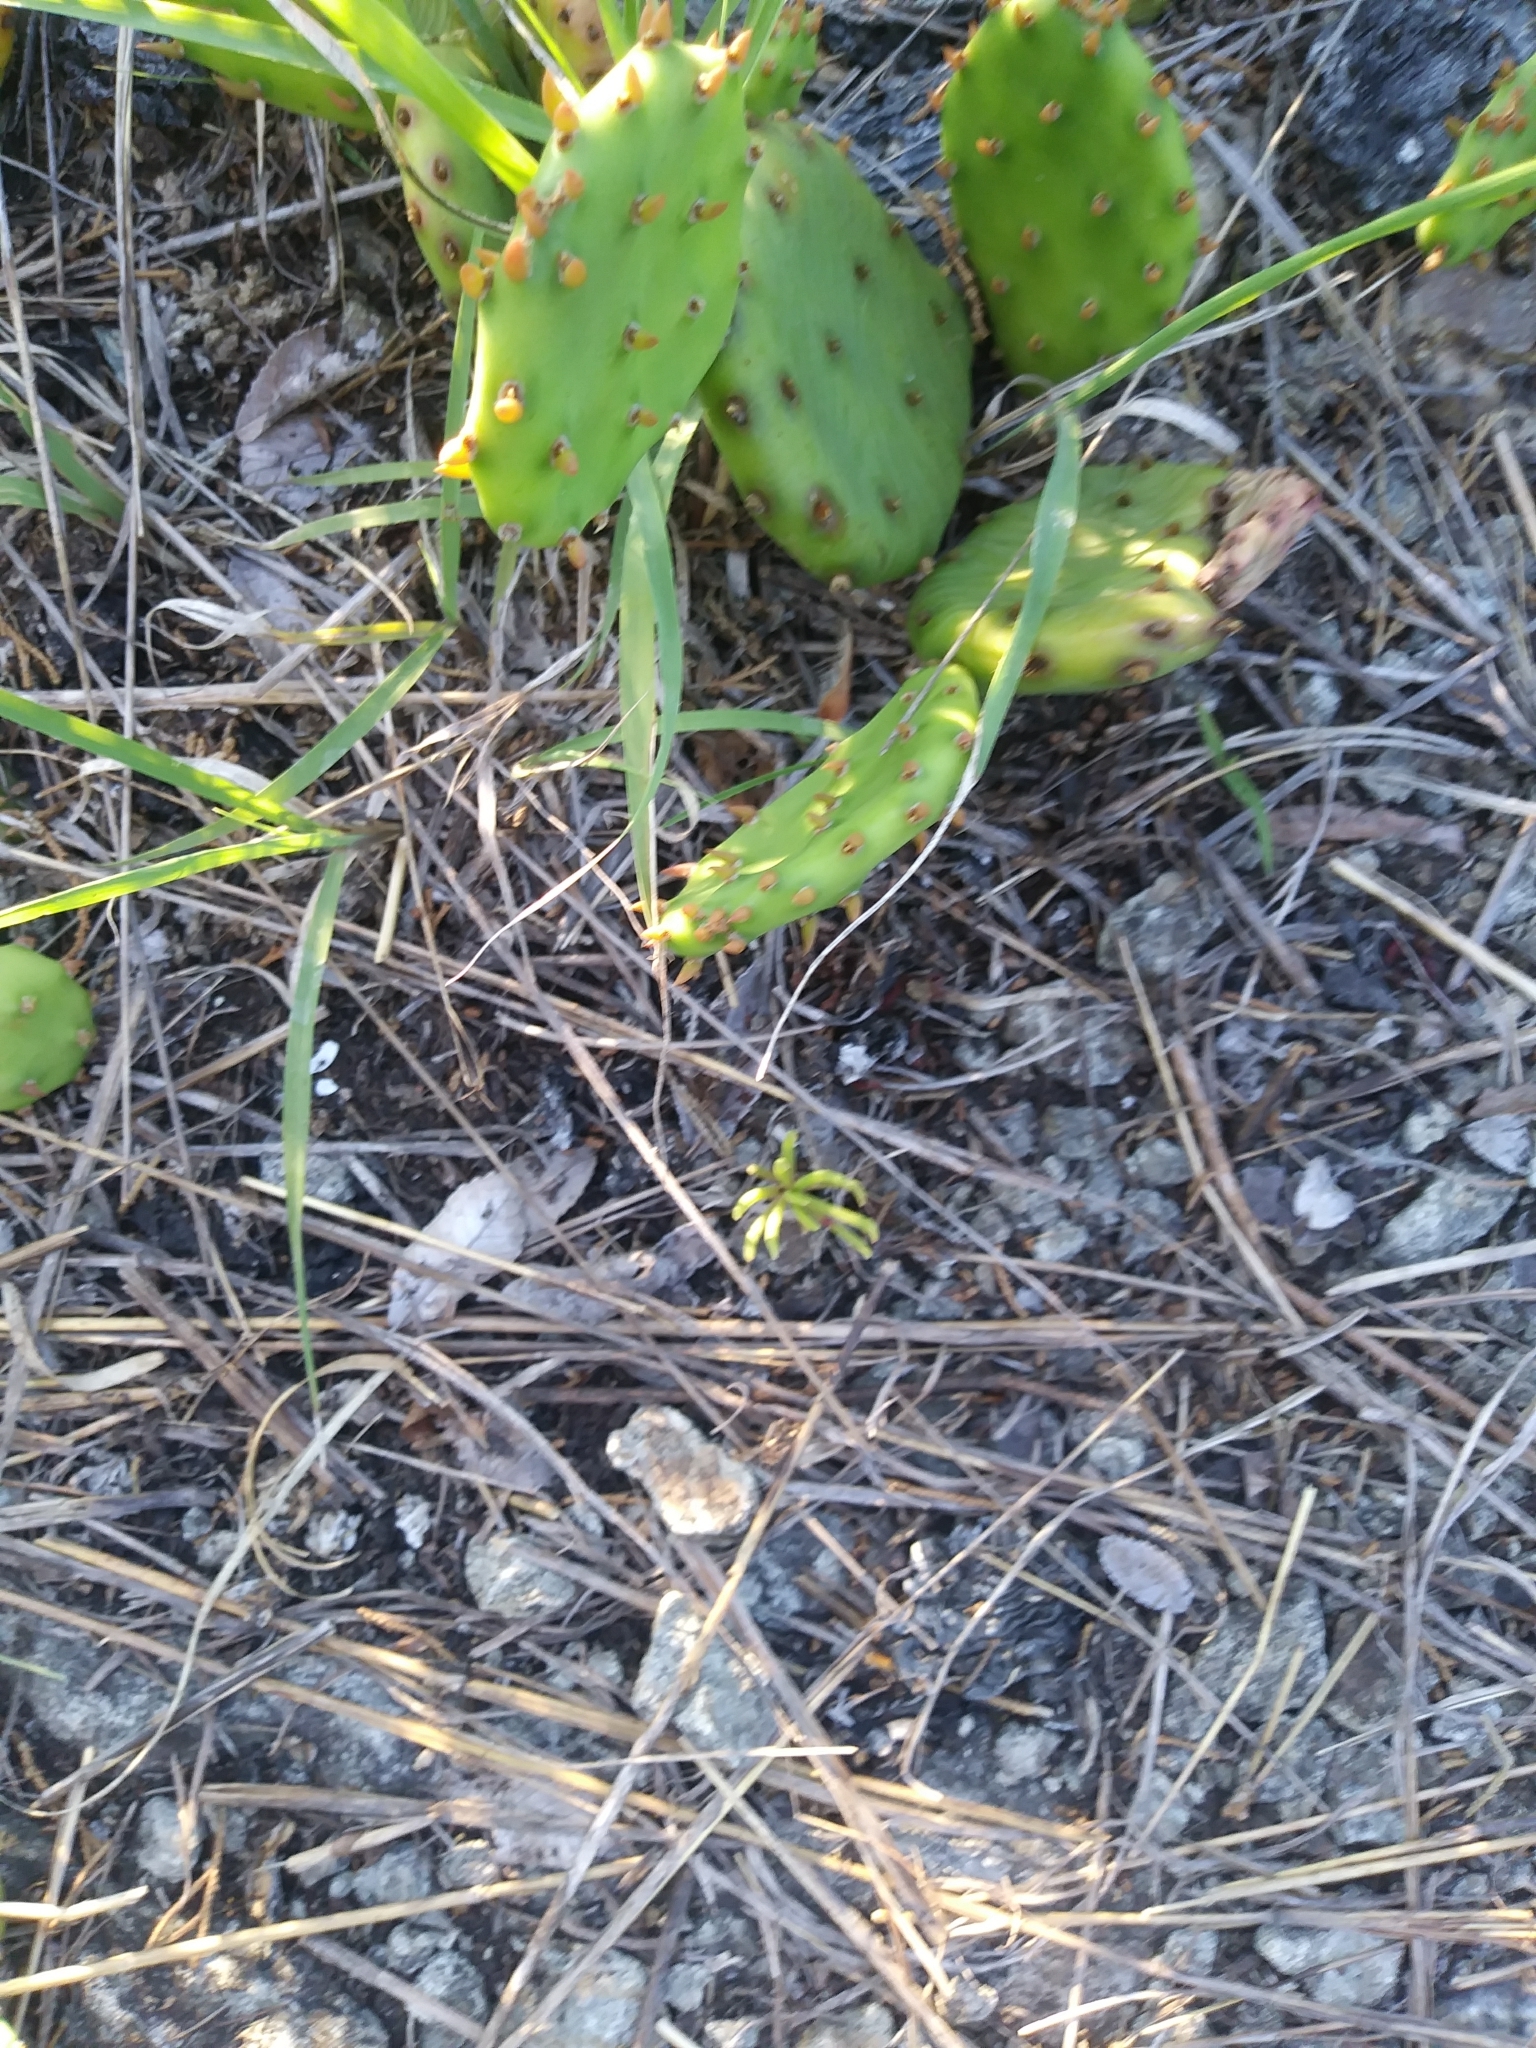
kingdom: Plantae
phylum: Tracheophyta
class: Magnoliopsida
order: Caryophyllales
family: Montiaceae
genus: Phemeranthus
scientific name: Phemeranthus teretifolius
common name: Quill fameflower
